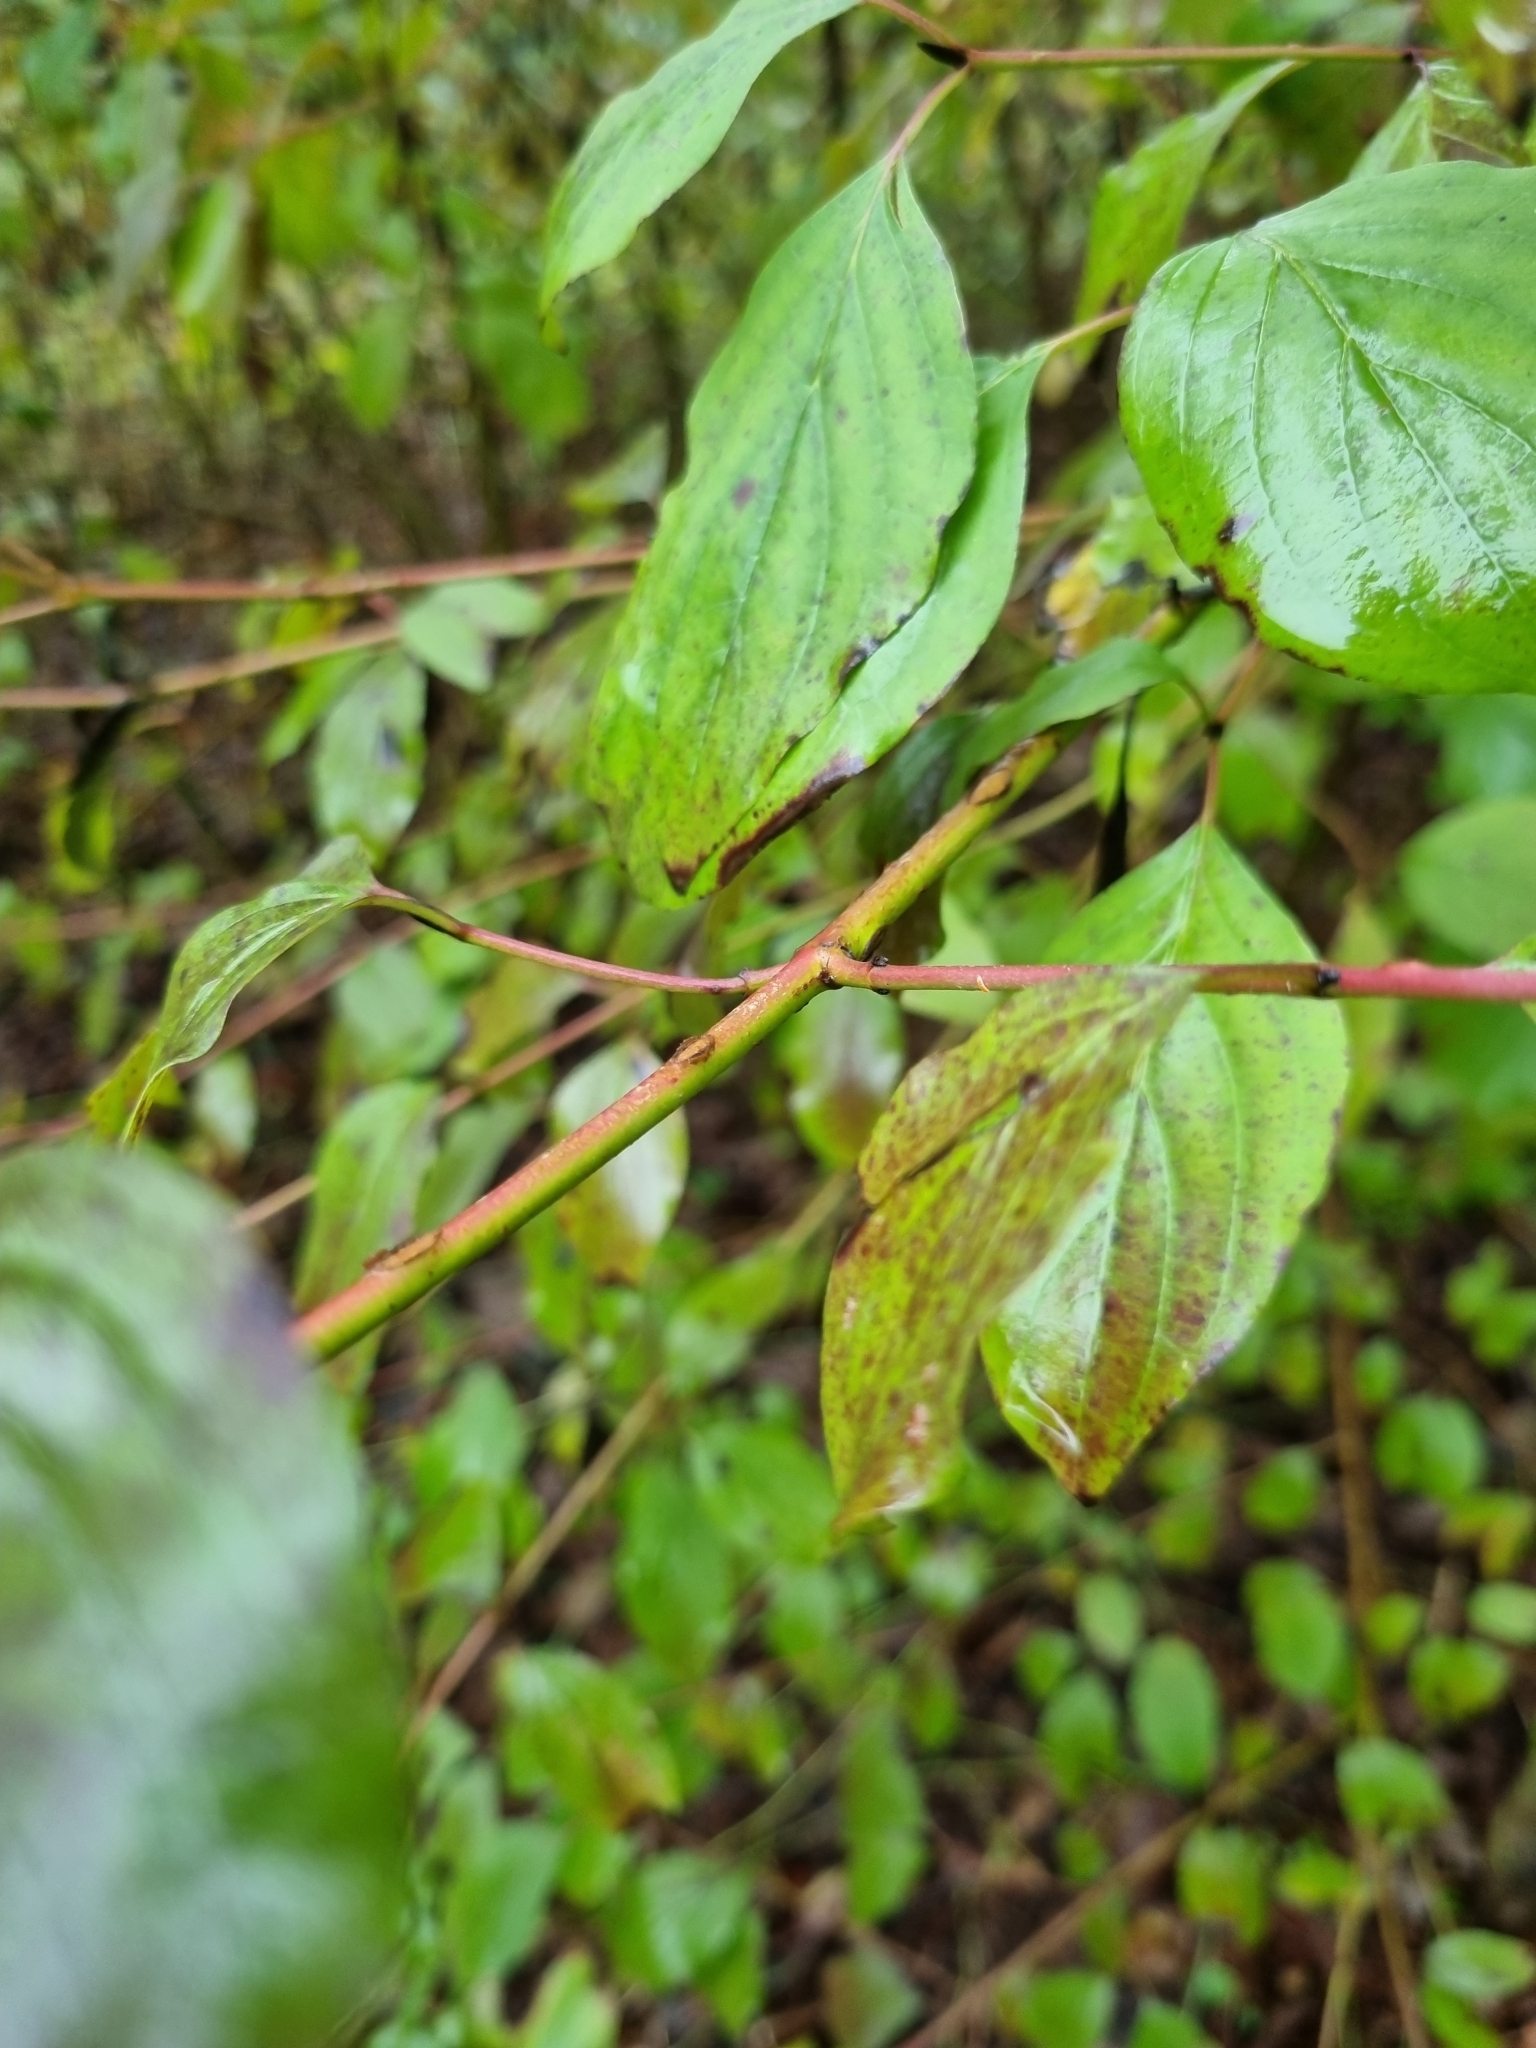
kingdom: Plantae
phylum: Tracheophyta
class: Magnoliopsida
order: Cornales
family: Cornaceae
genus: Cornus
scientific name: Cornus sanguinea
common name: Dogwood
